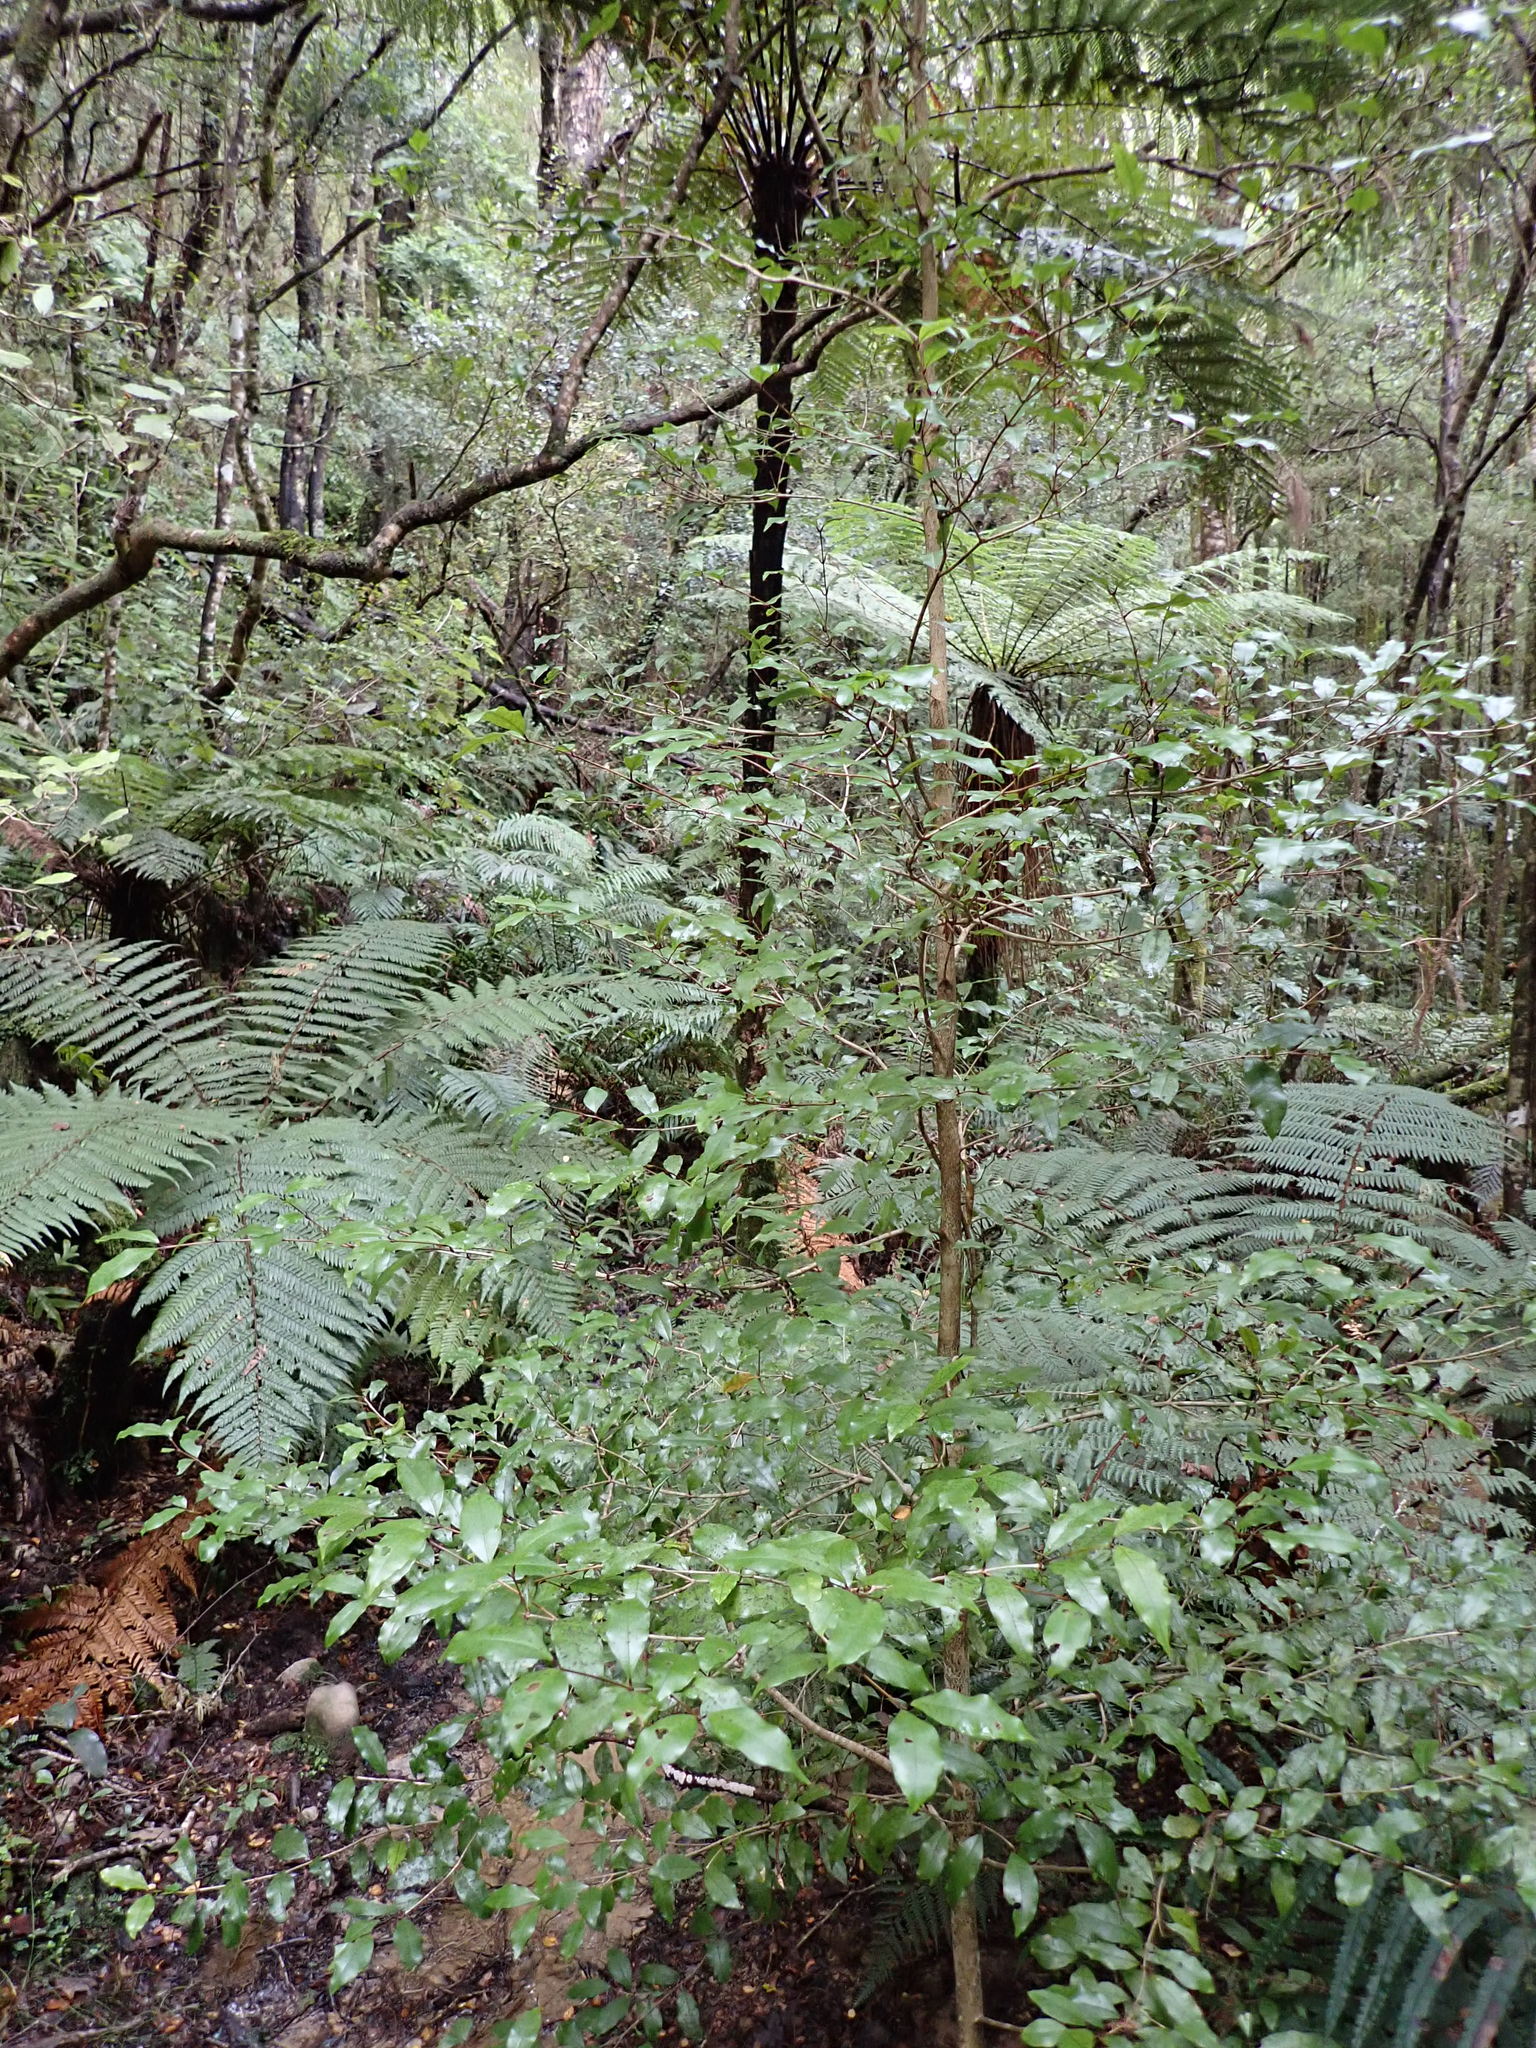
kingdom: Plantae
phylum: Tracheophyta
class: Magnoliopsida
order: Myrtales
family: Myrtaceae
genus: Syzygium
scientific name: Syzygium maire
